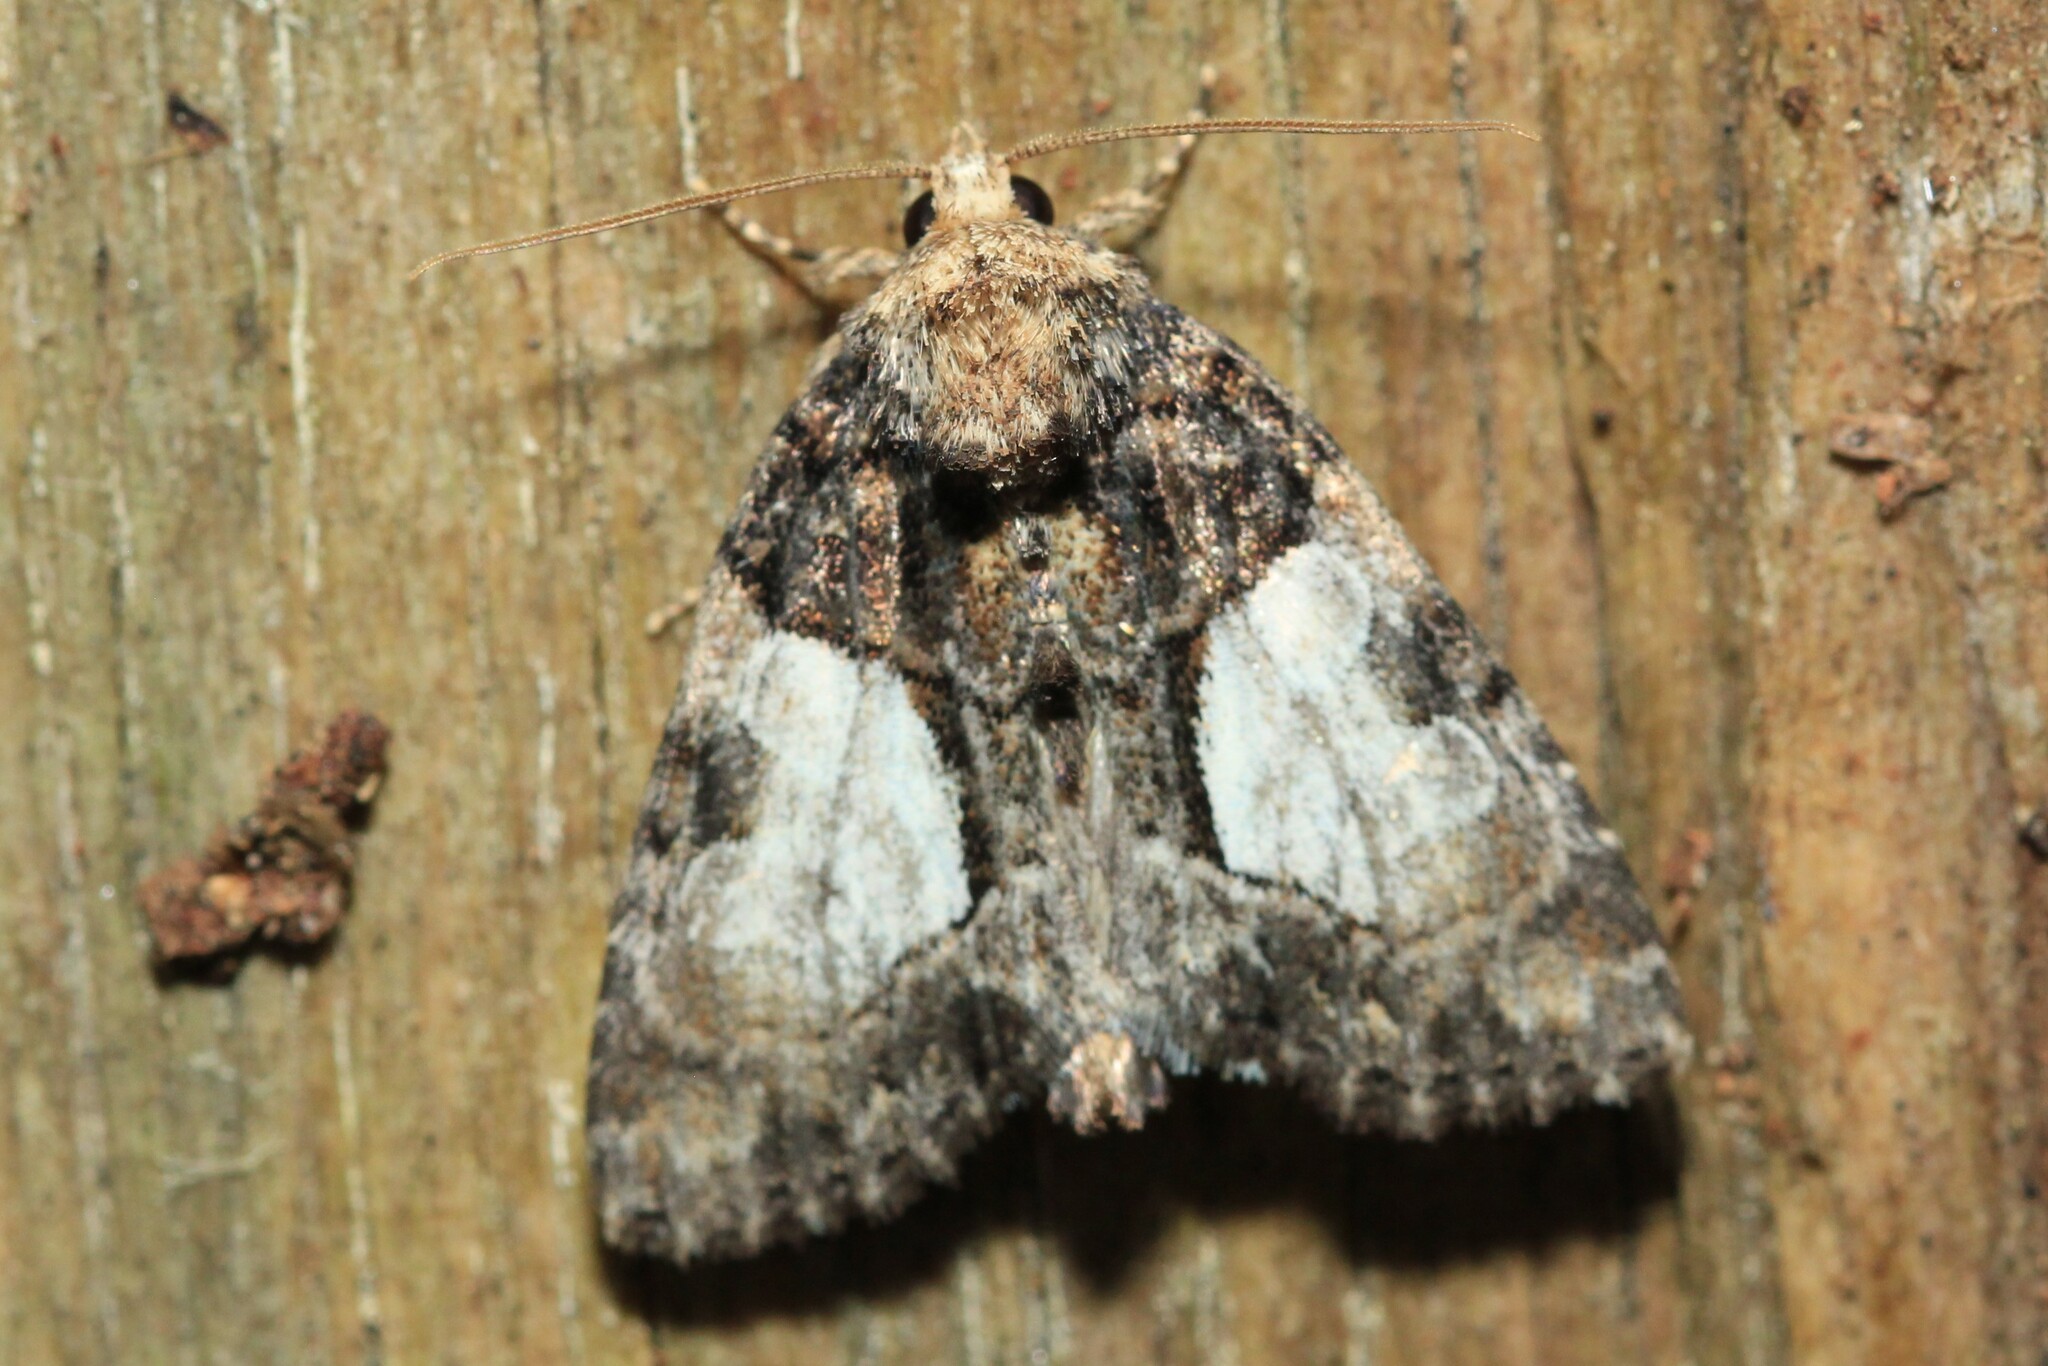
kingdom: Animalia
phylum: Arthropoda
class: Insecta
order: Lepidoptera
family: Noctuidae
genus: Chytonix
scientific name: Chytonix palliatricula
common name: Cloaked marvel
